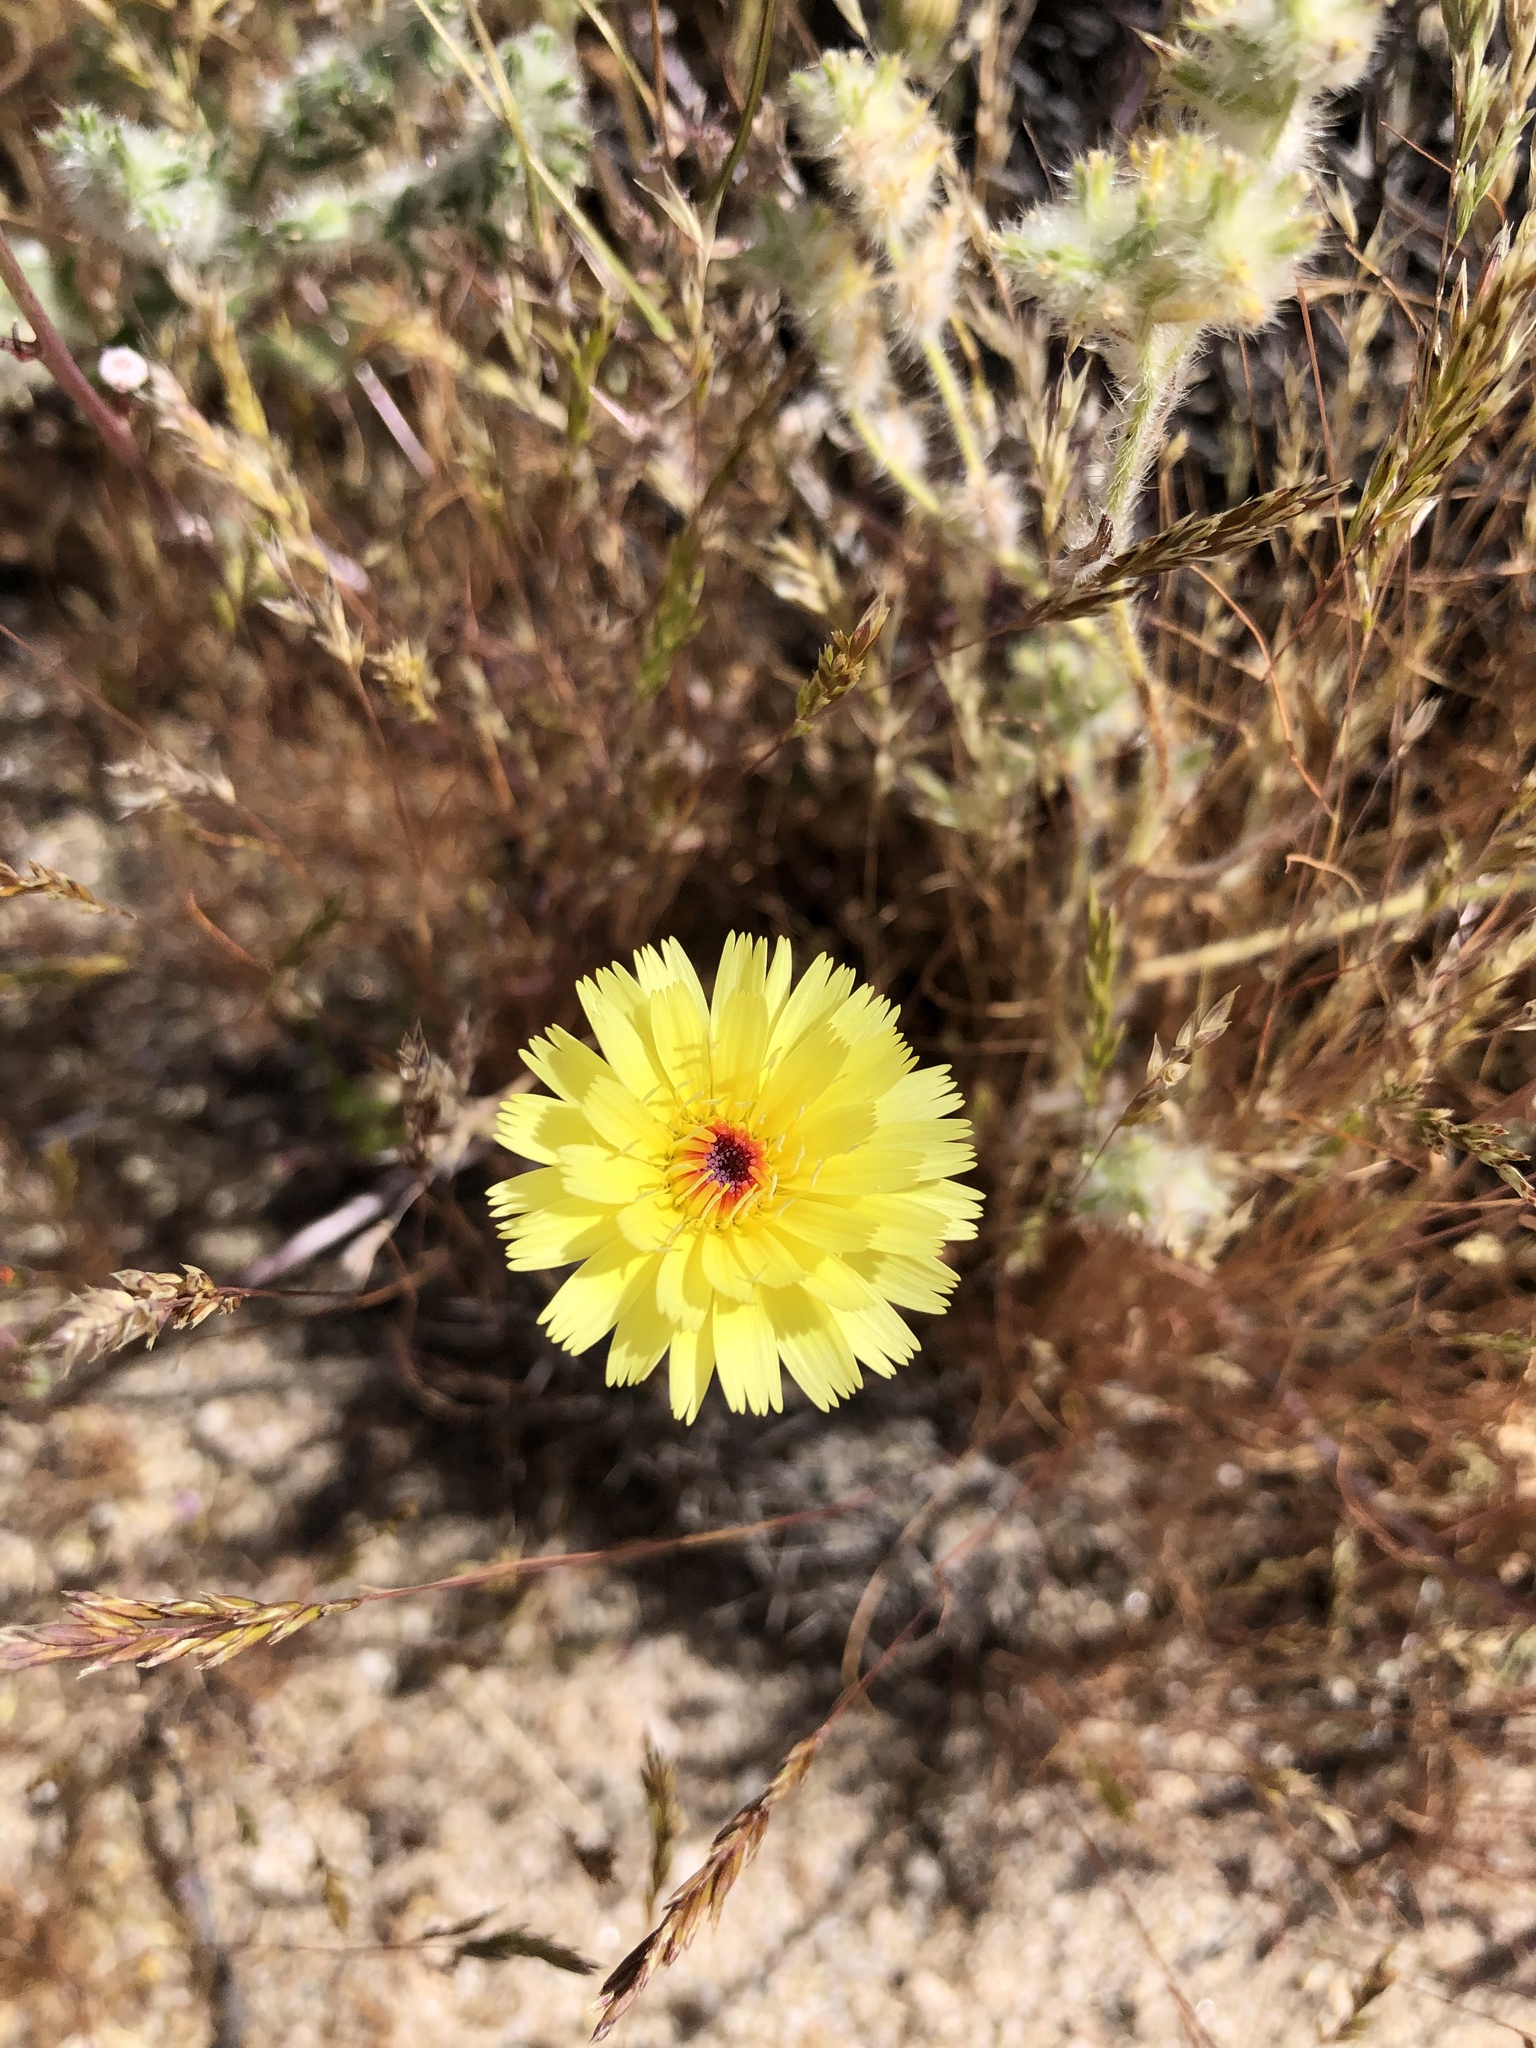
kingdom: Plantae
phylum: Tracheophyta
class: Magnoliopsida
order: Asterales
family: Asteraceae
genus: Malacothrix
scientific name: Malacothrix glabrata
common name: Smooth desert-dandelion
